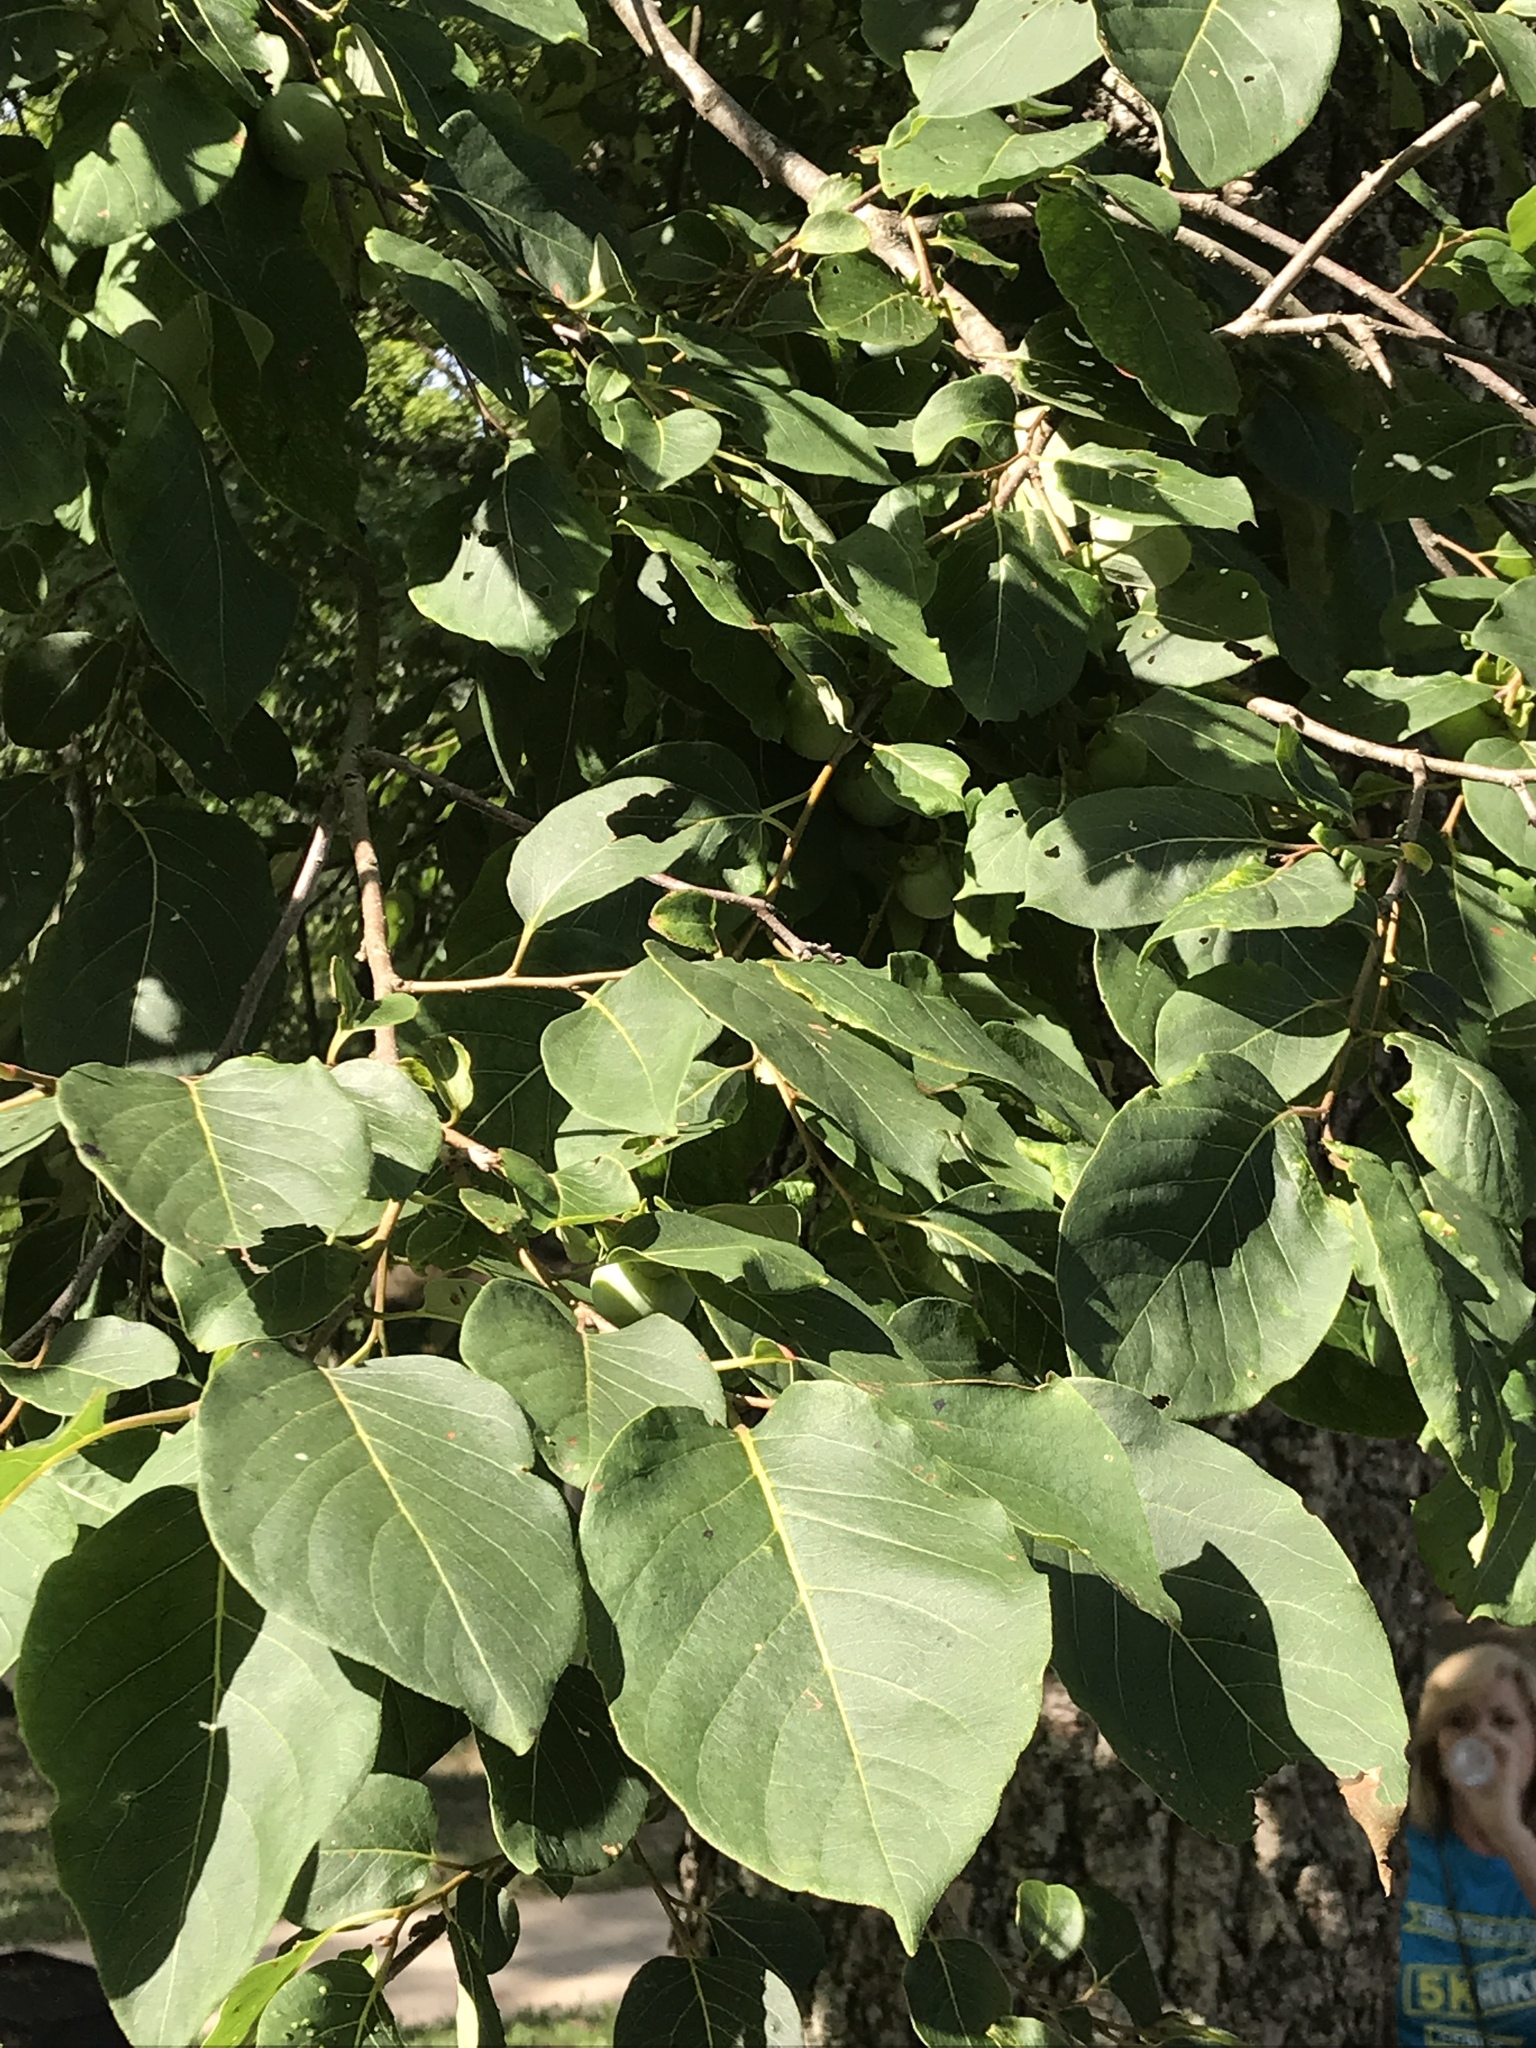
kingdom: Plantae
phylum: Tracheophyta
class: Magnoliopsida
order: Ericales
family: Ebenaceae
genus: Diospyros
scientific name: Diospyros virginiana
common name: Persimmon
